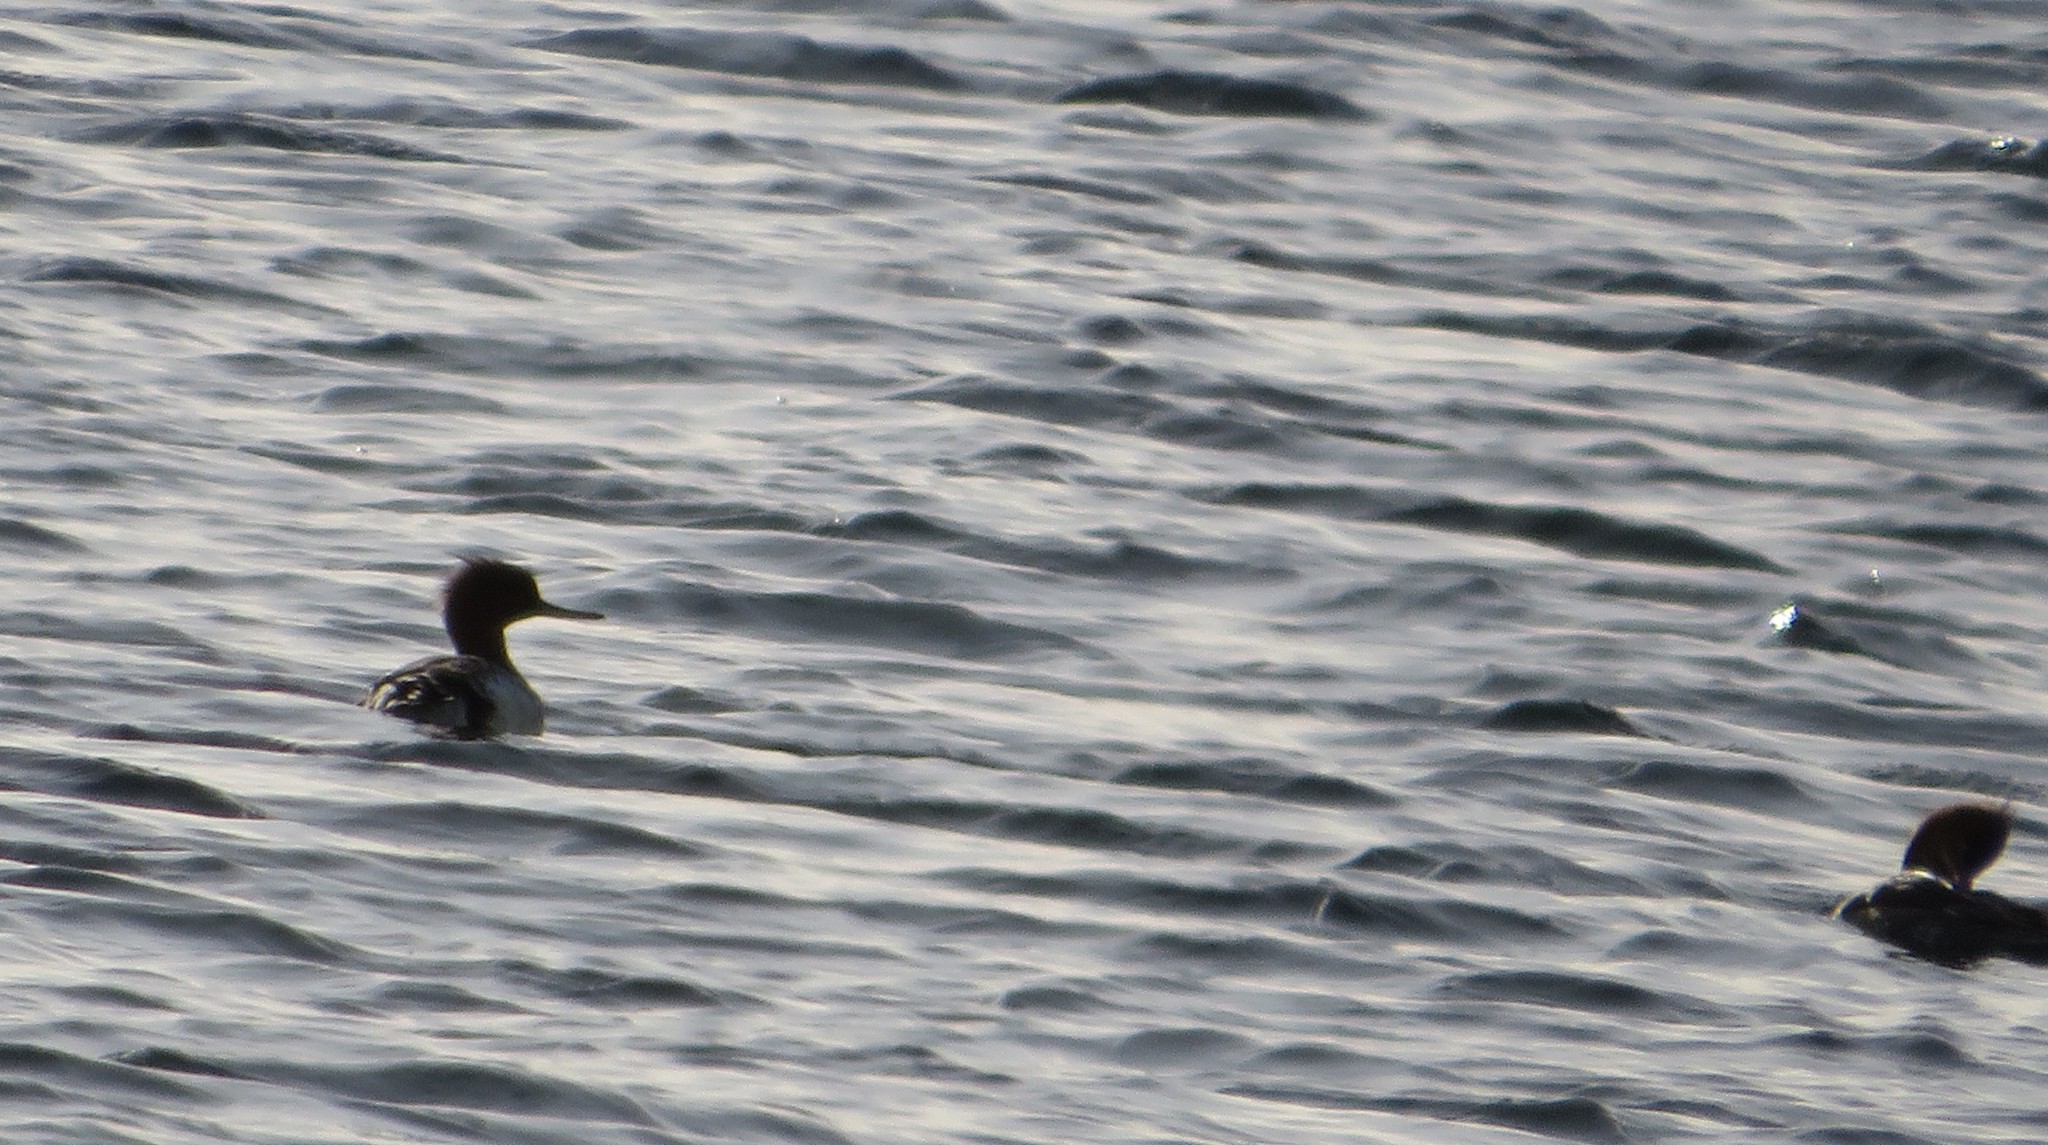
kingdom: Animalia
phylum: Chordata
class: Aves
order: Anseriformes
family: Anatidae
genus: Mergus
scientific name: Mergus serrator
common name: Red-breasted merganser
